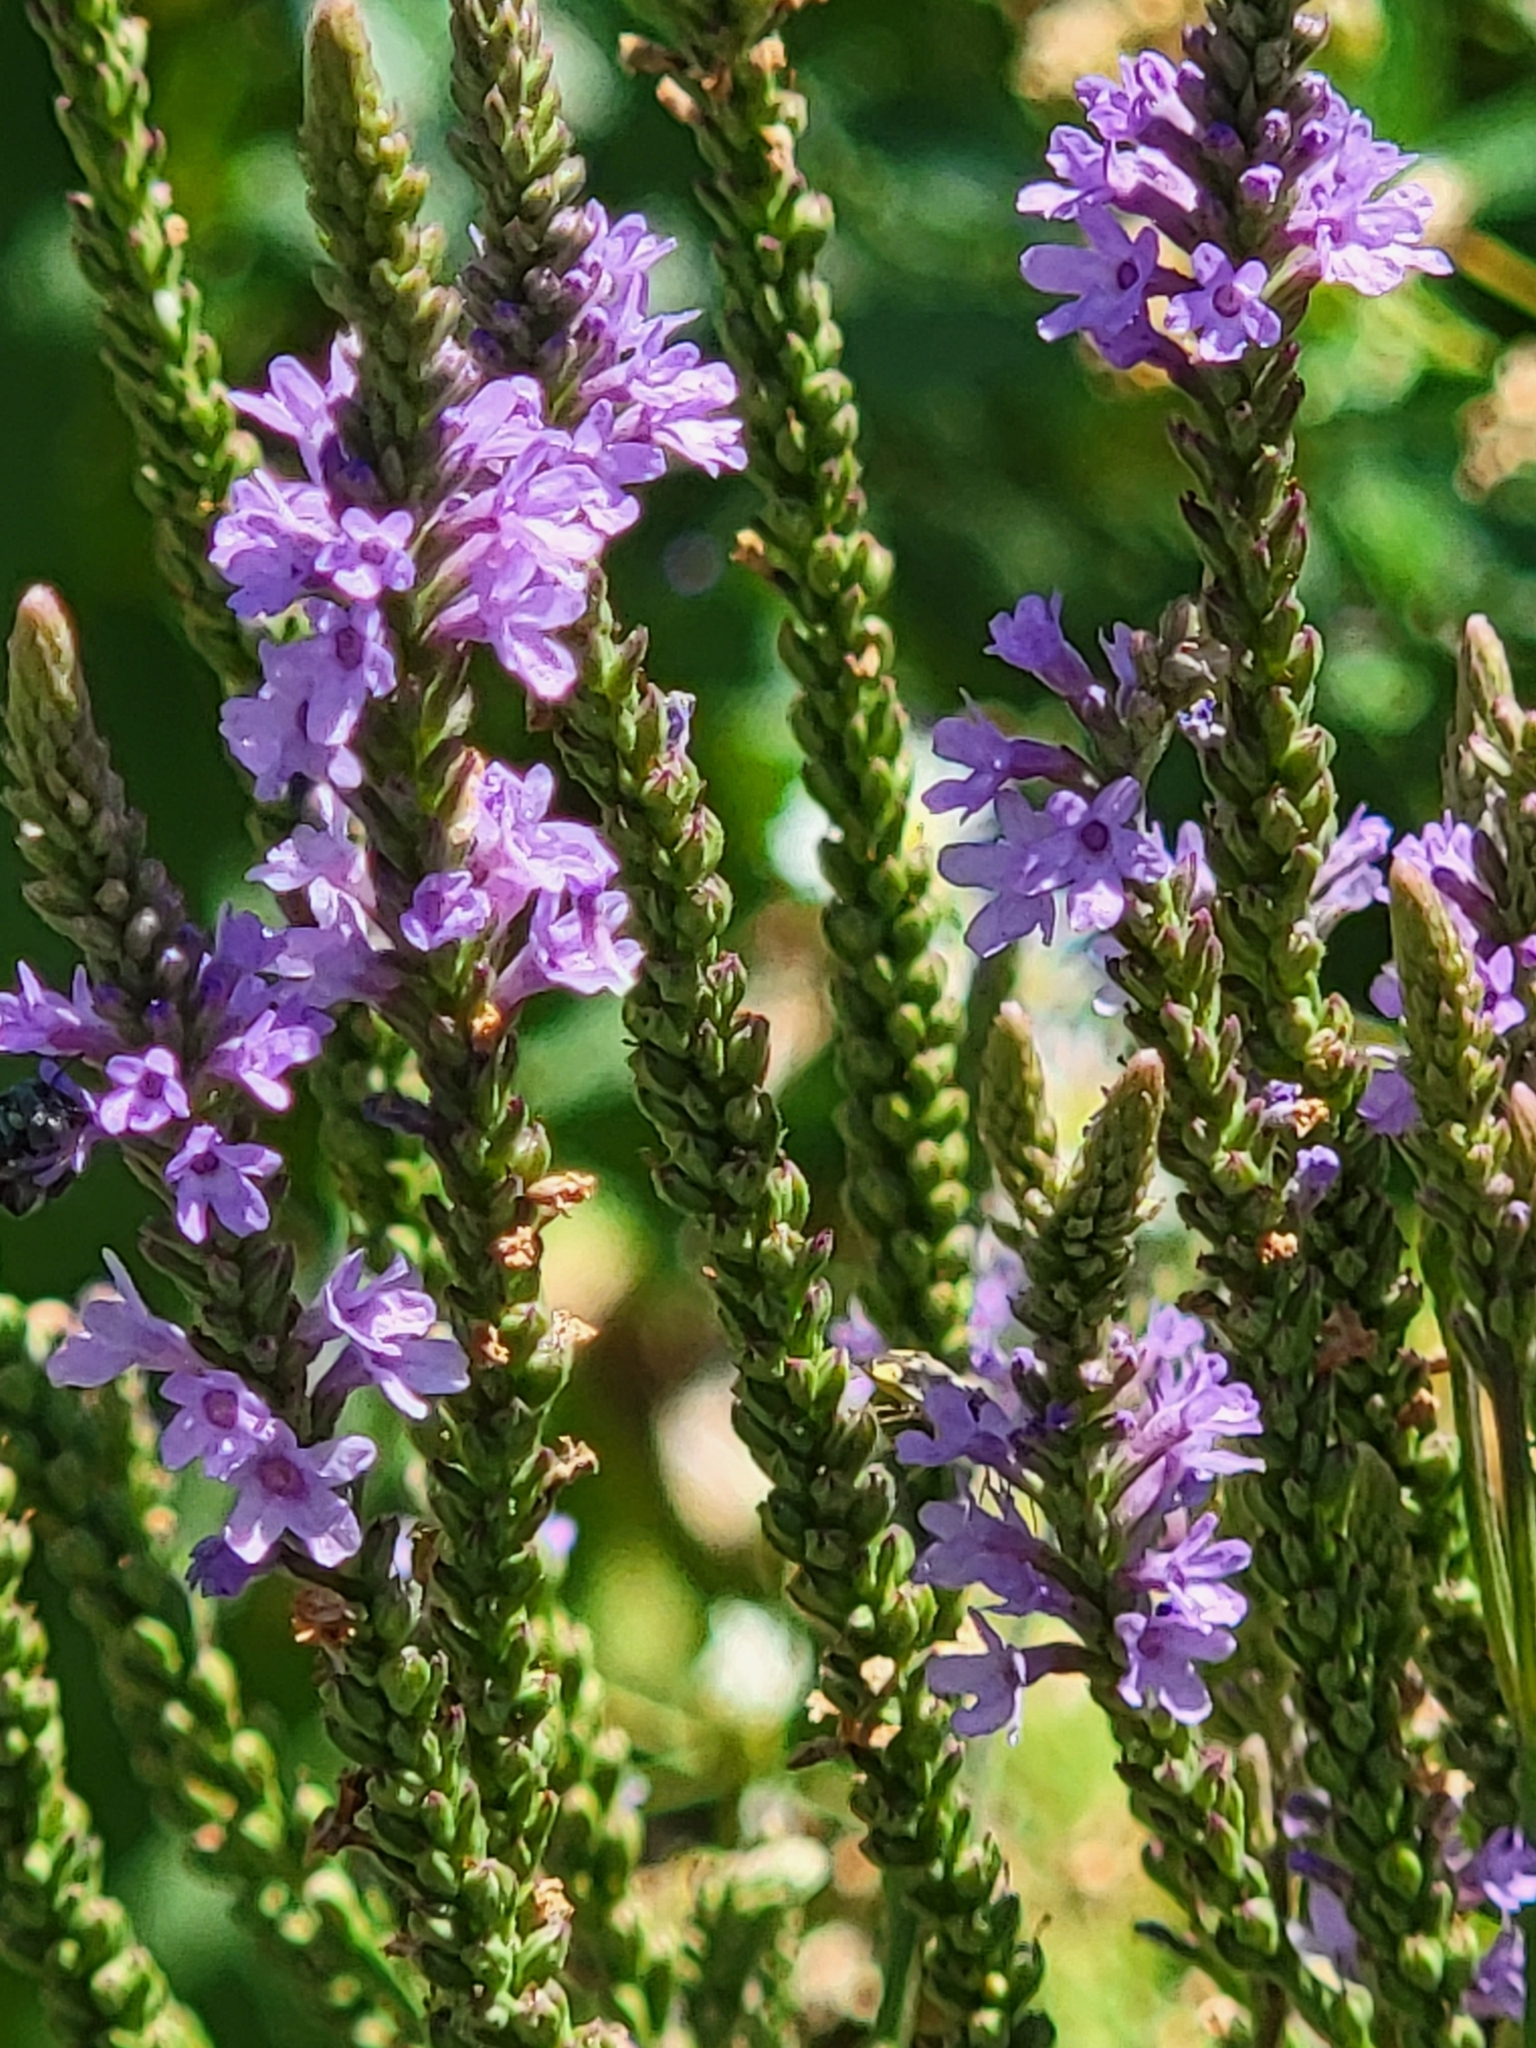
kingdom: Plantae
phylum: Tracheophyta
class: Magnoliopsida
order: Lamiales
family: Verbenaceae
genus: Verbena
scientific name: Verbena hastata
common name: American blue vervain
